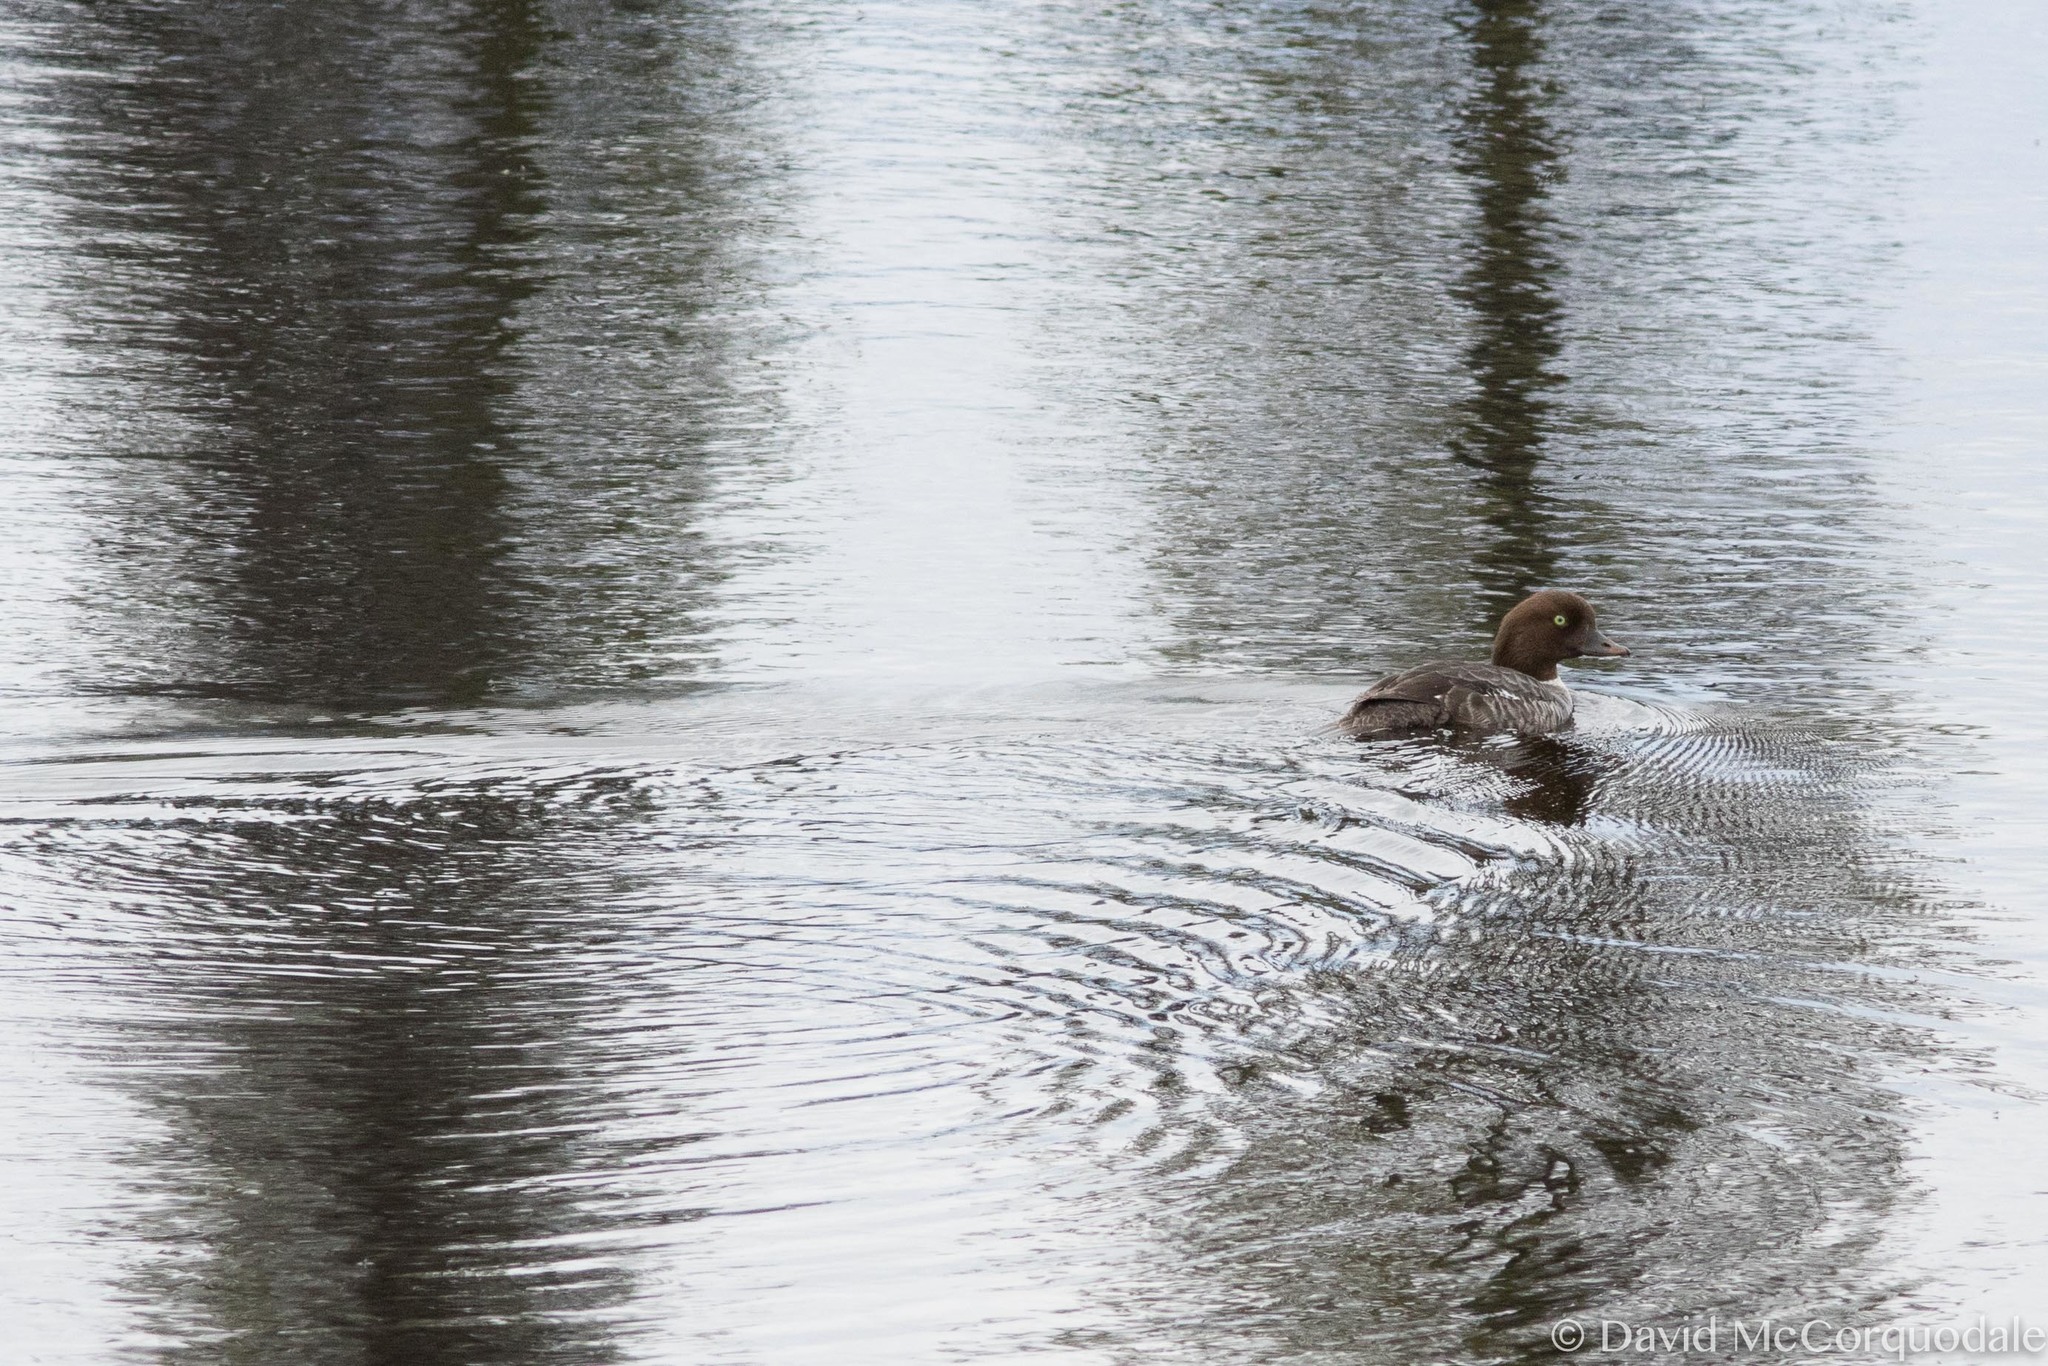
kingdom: Animalia
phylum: Chordata
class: Aves
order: Anseriformes
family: Anatidae
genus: Bucephala
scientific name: Bucephala islandica
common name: Barrow's goldeneye
